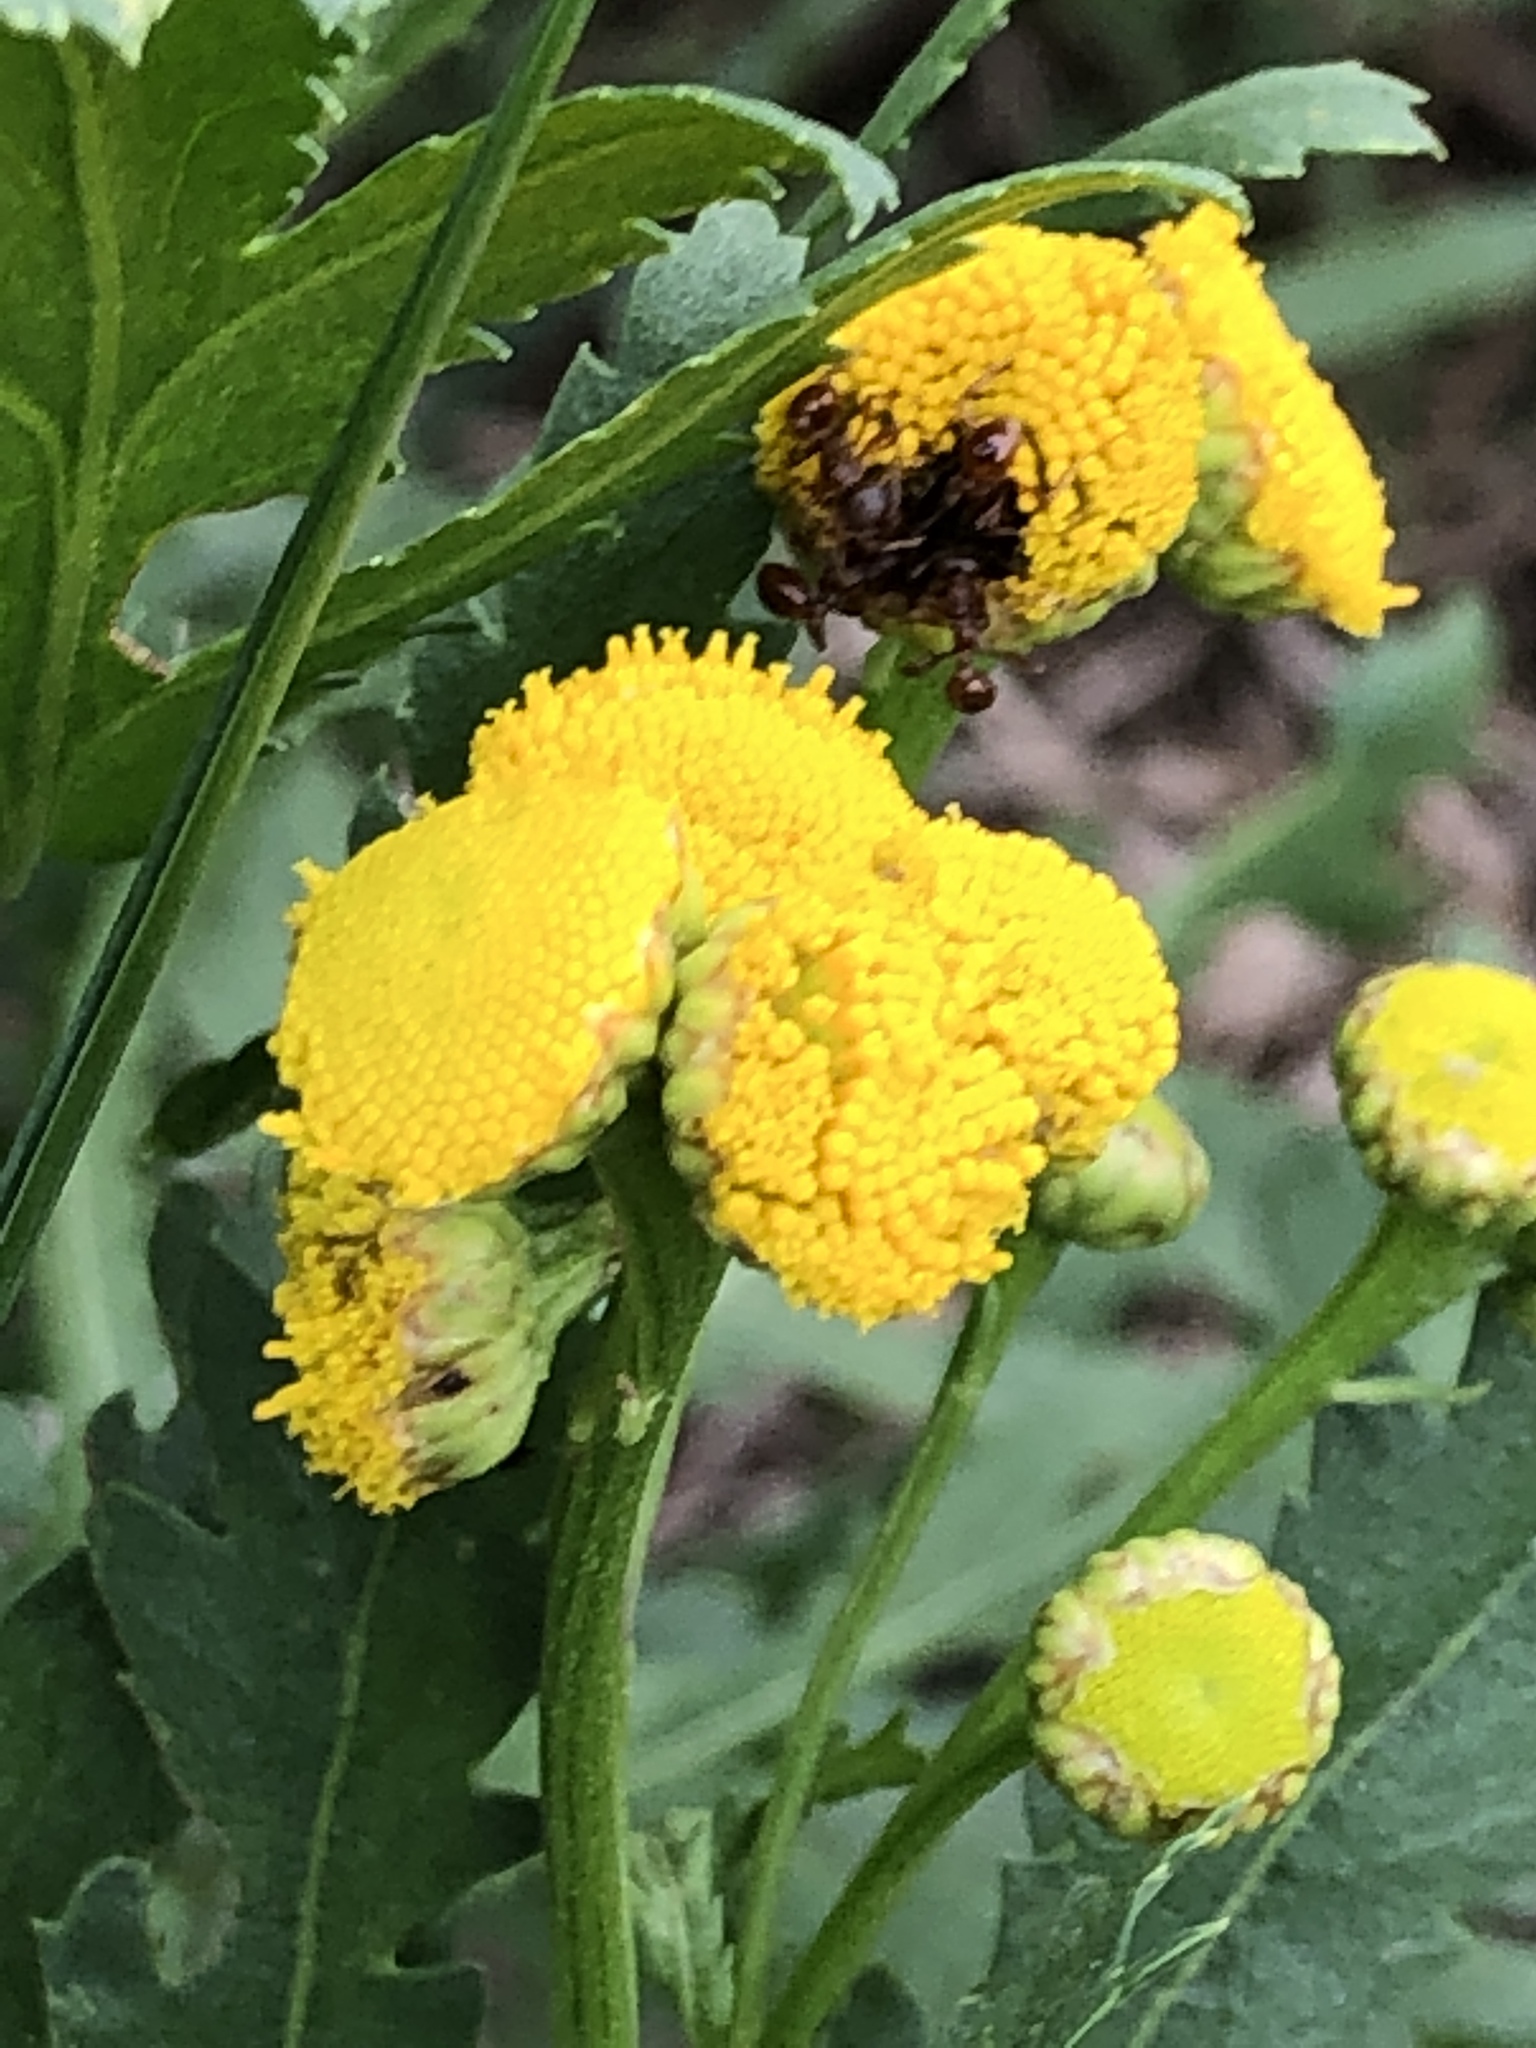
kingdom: Plantae
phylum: Tracheophyta
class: Magnoliopsida
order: Asterales
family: Asteraceae
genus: Tanacetum
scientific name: Tanacetum vulgare
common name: Common tansy
